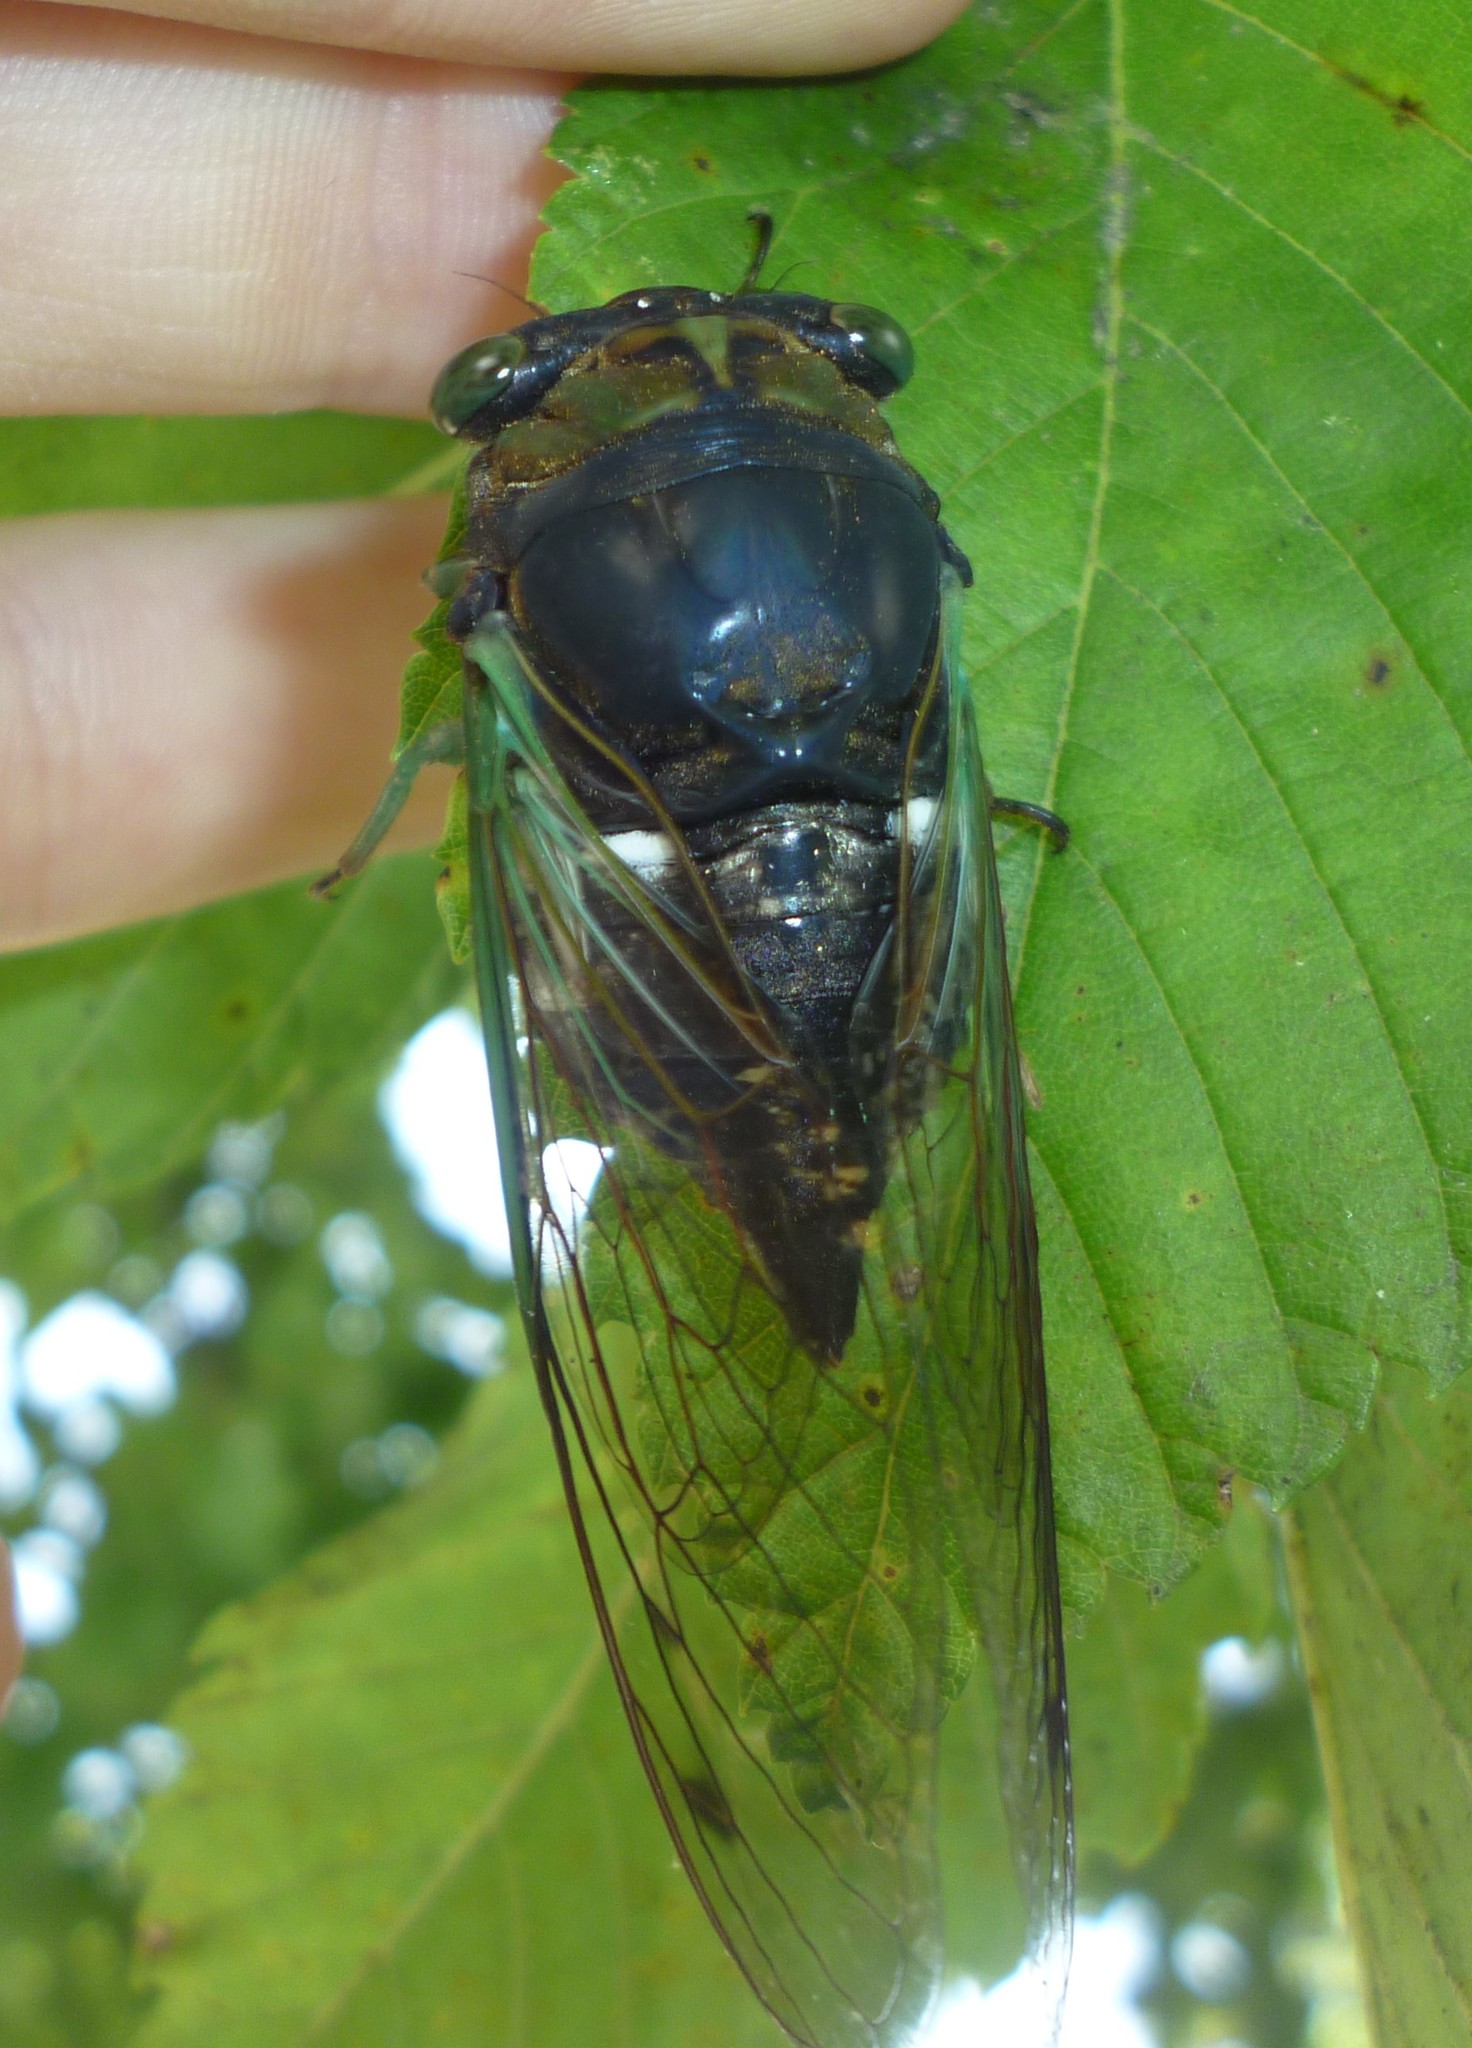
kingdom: Animalia
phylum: Arthropoda
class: Insecta
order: Hemiptera
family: Cicadidae
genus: Neotibicen
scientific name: Neotibicen tibicen
